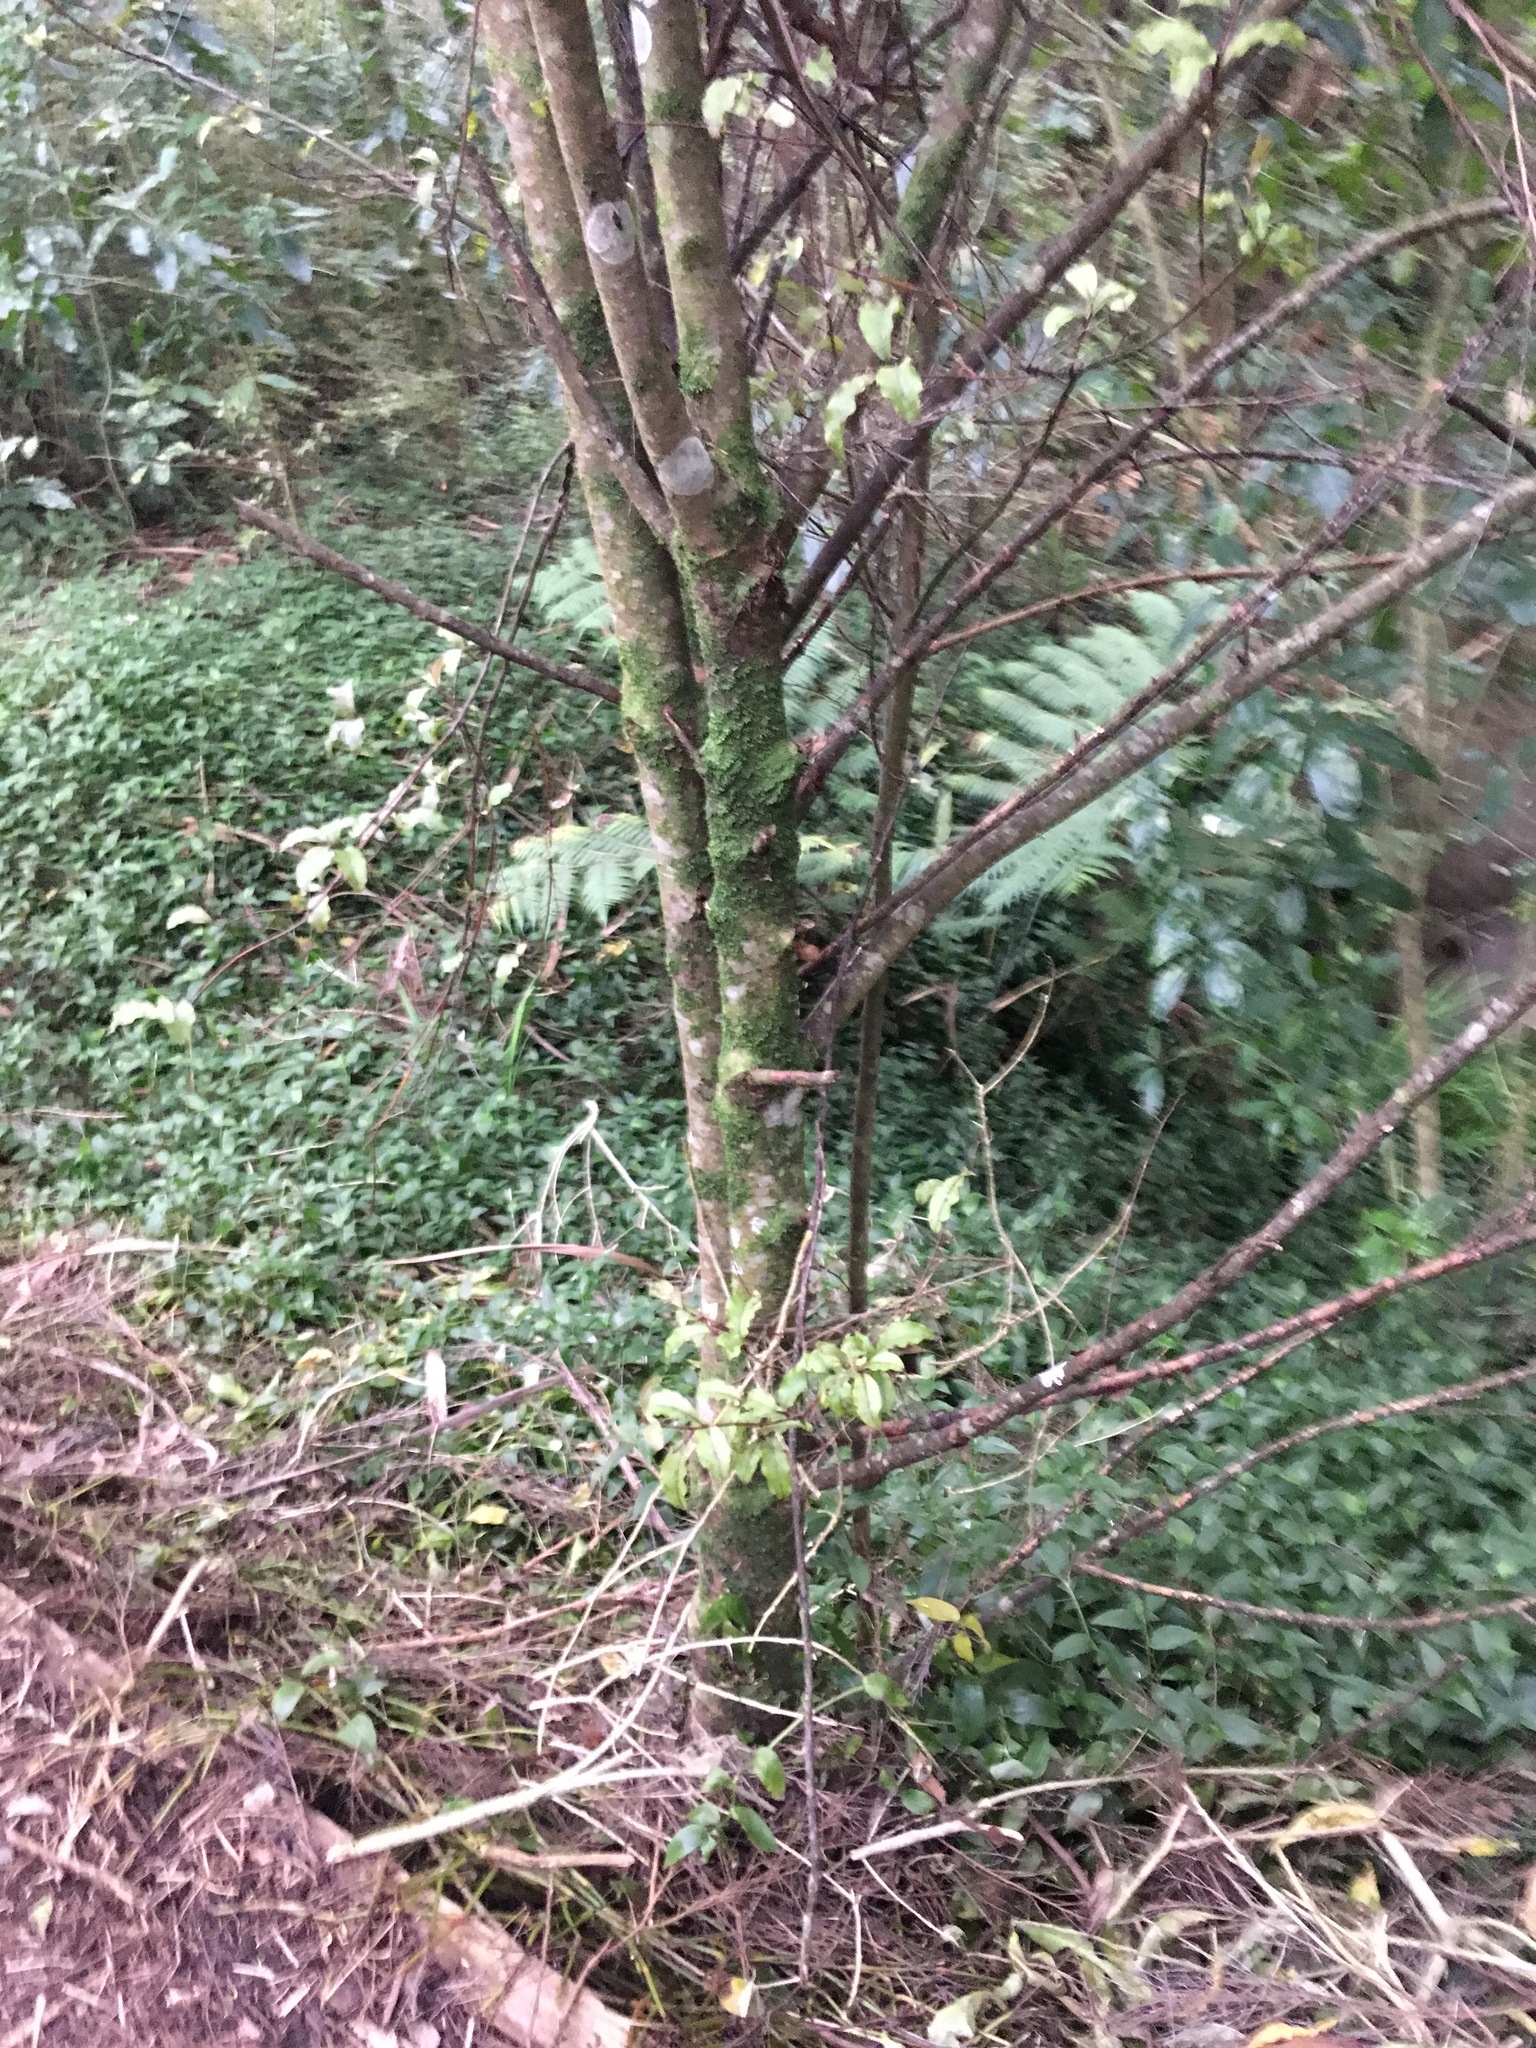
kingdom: Plantae
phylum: Tracheophyta
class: Liliopsida
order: Commelinales
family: Commelinaceae
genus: Tradescantia
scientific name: Tradescantia fluminensis
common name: Wandering-jew
